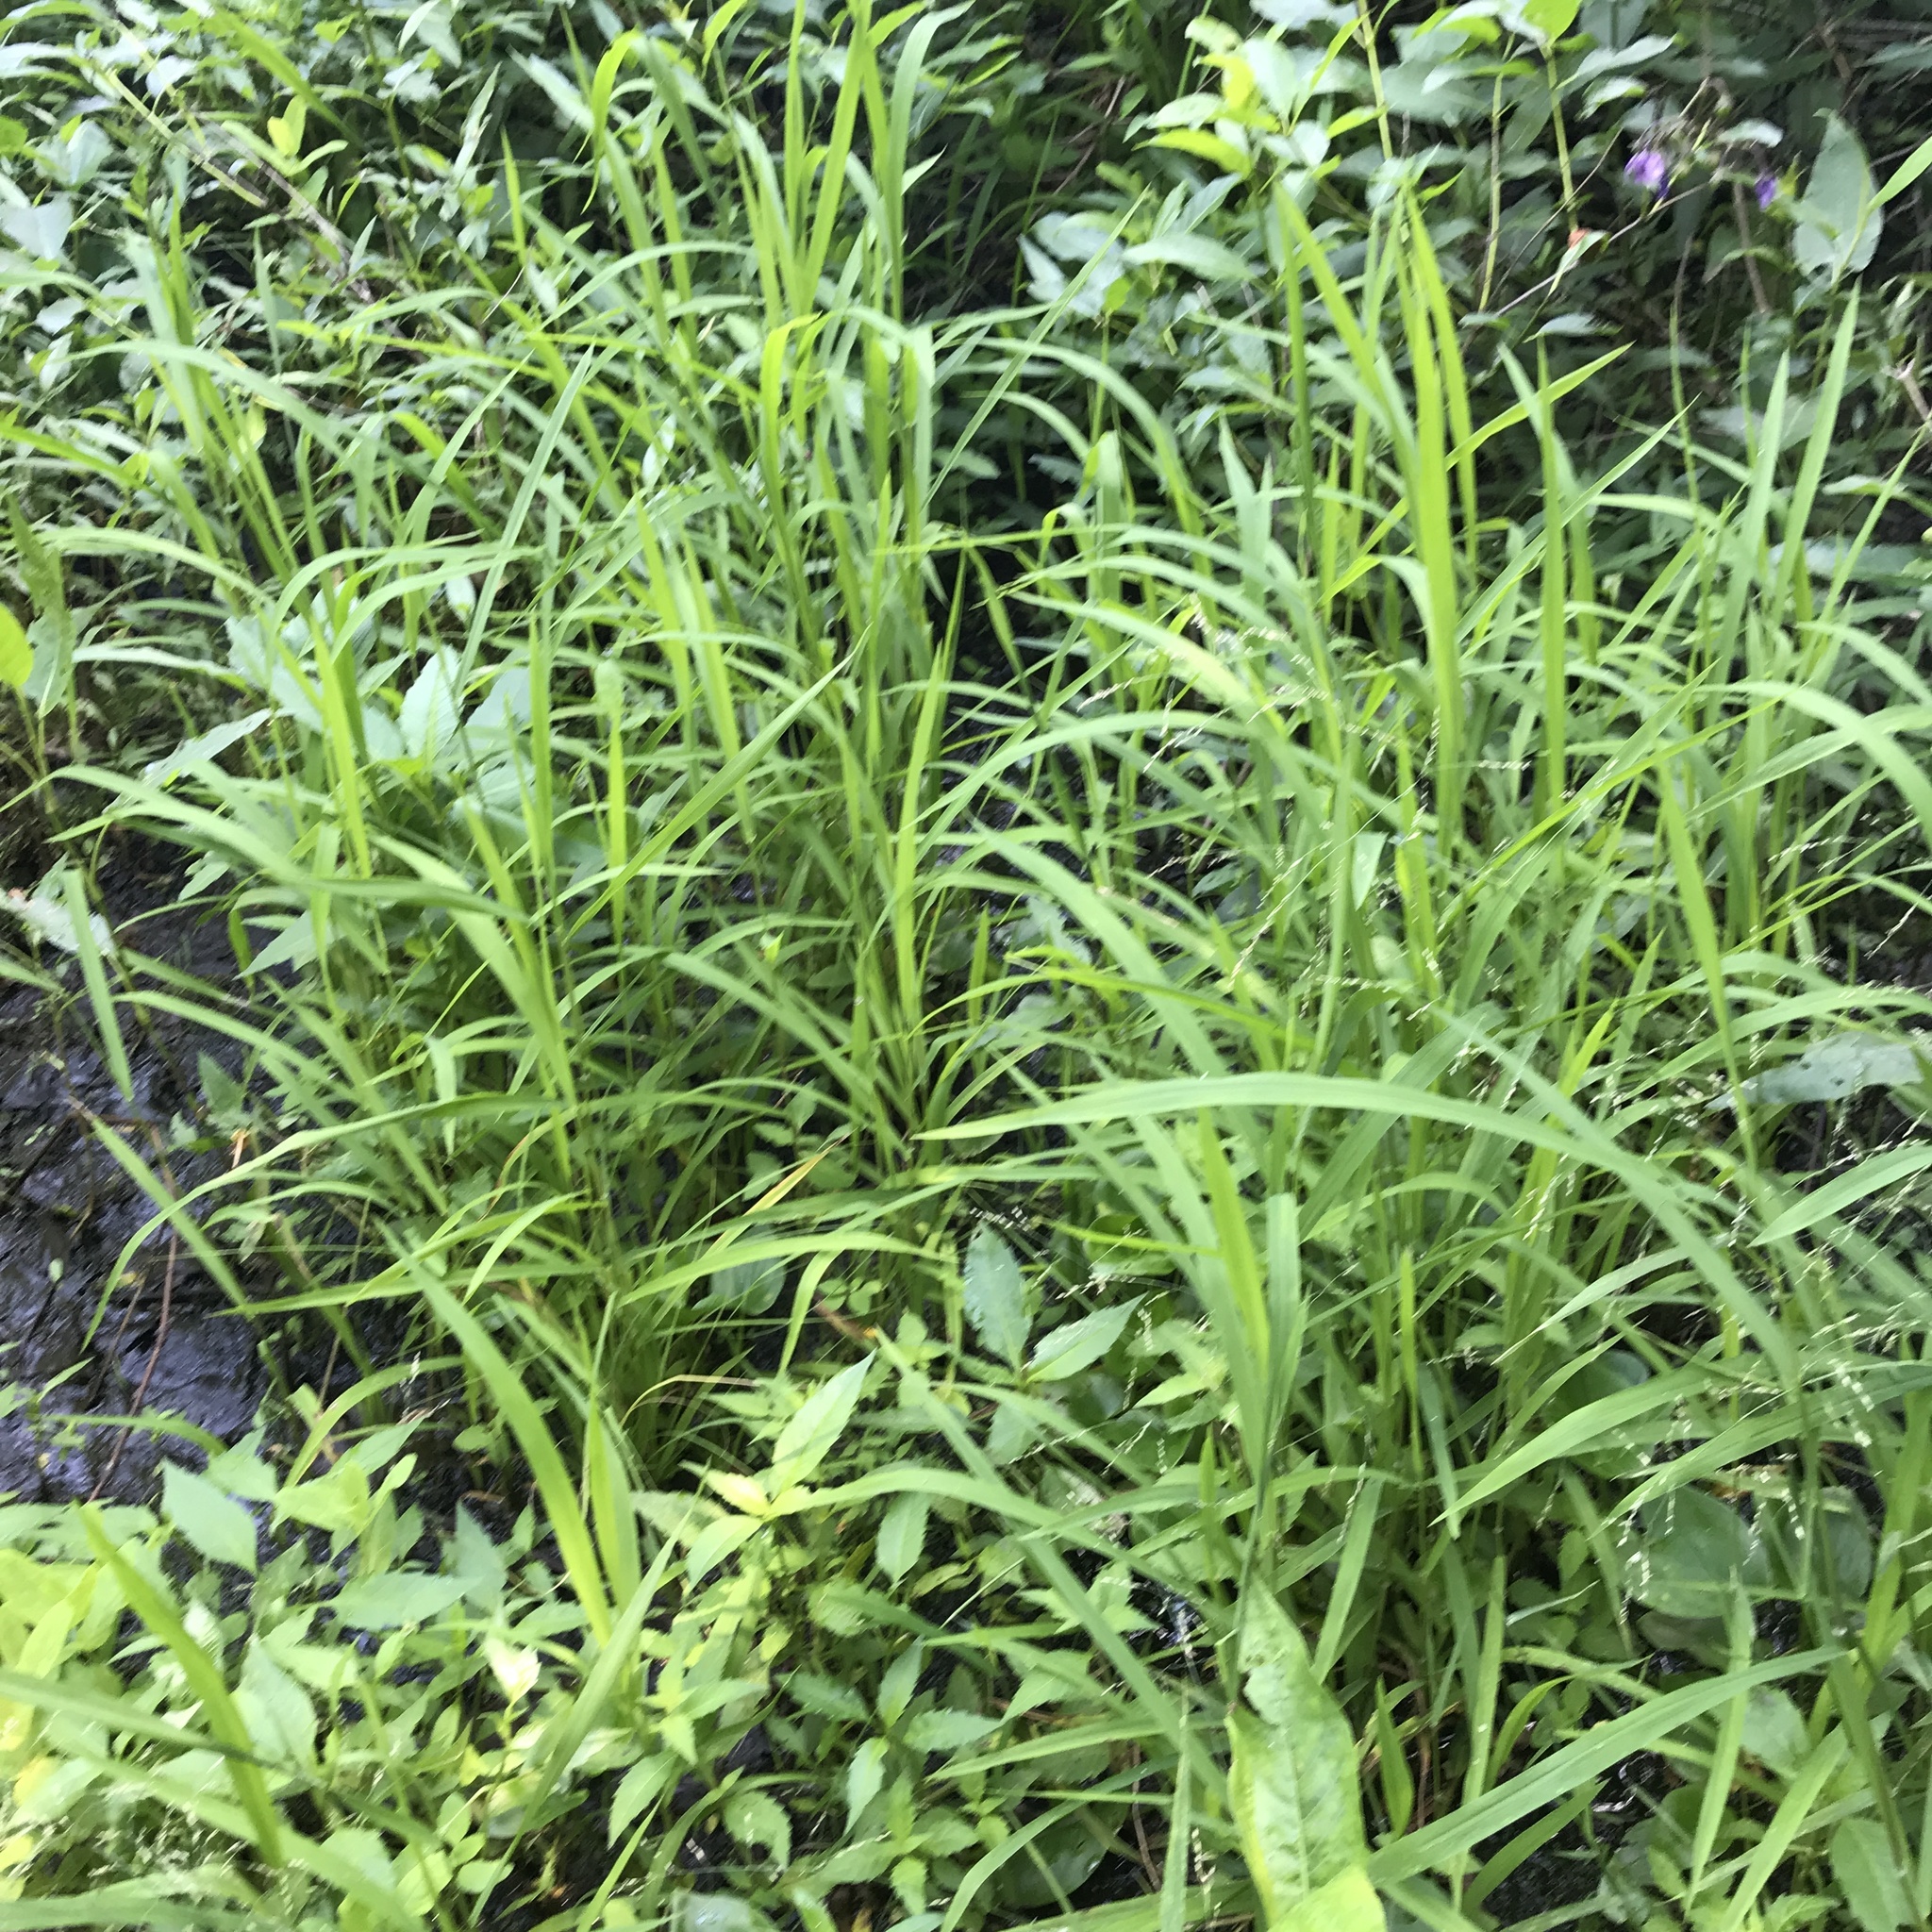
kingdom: Plantae
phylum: Tracheophyta
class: Liliopsida
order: Poales
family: Poaceae
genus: Leersia
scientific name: Leersia oryzoides
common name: Cut-grass
